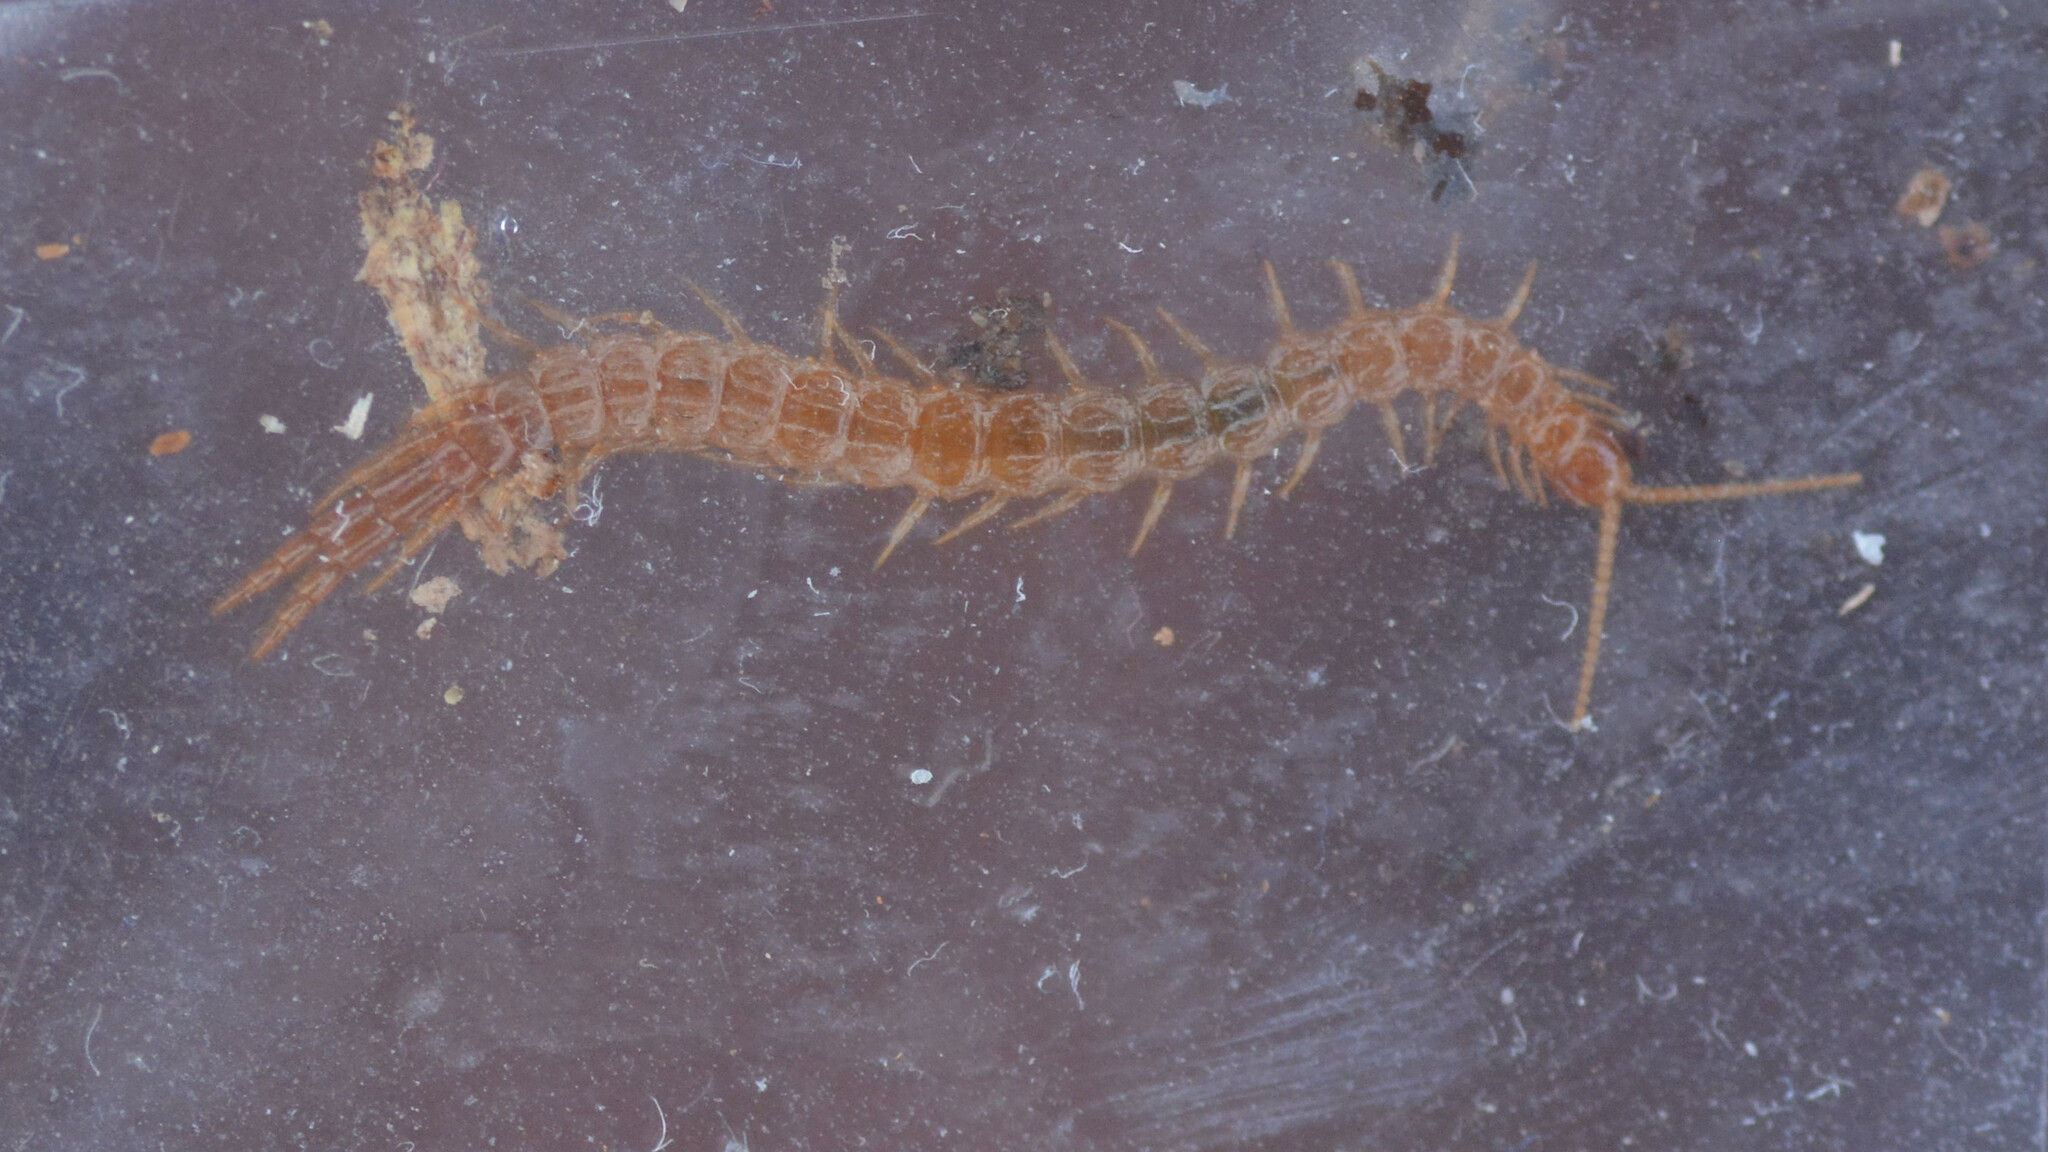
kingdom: Animalia
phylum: Arthropoda
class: Chilopoda
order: Scolopendromorpha
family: Cryptopidae
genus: Cryptops
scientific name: Cryptops hortensis
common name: Centipede
